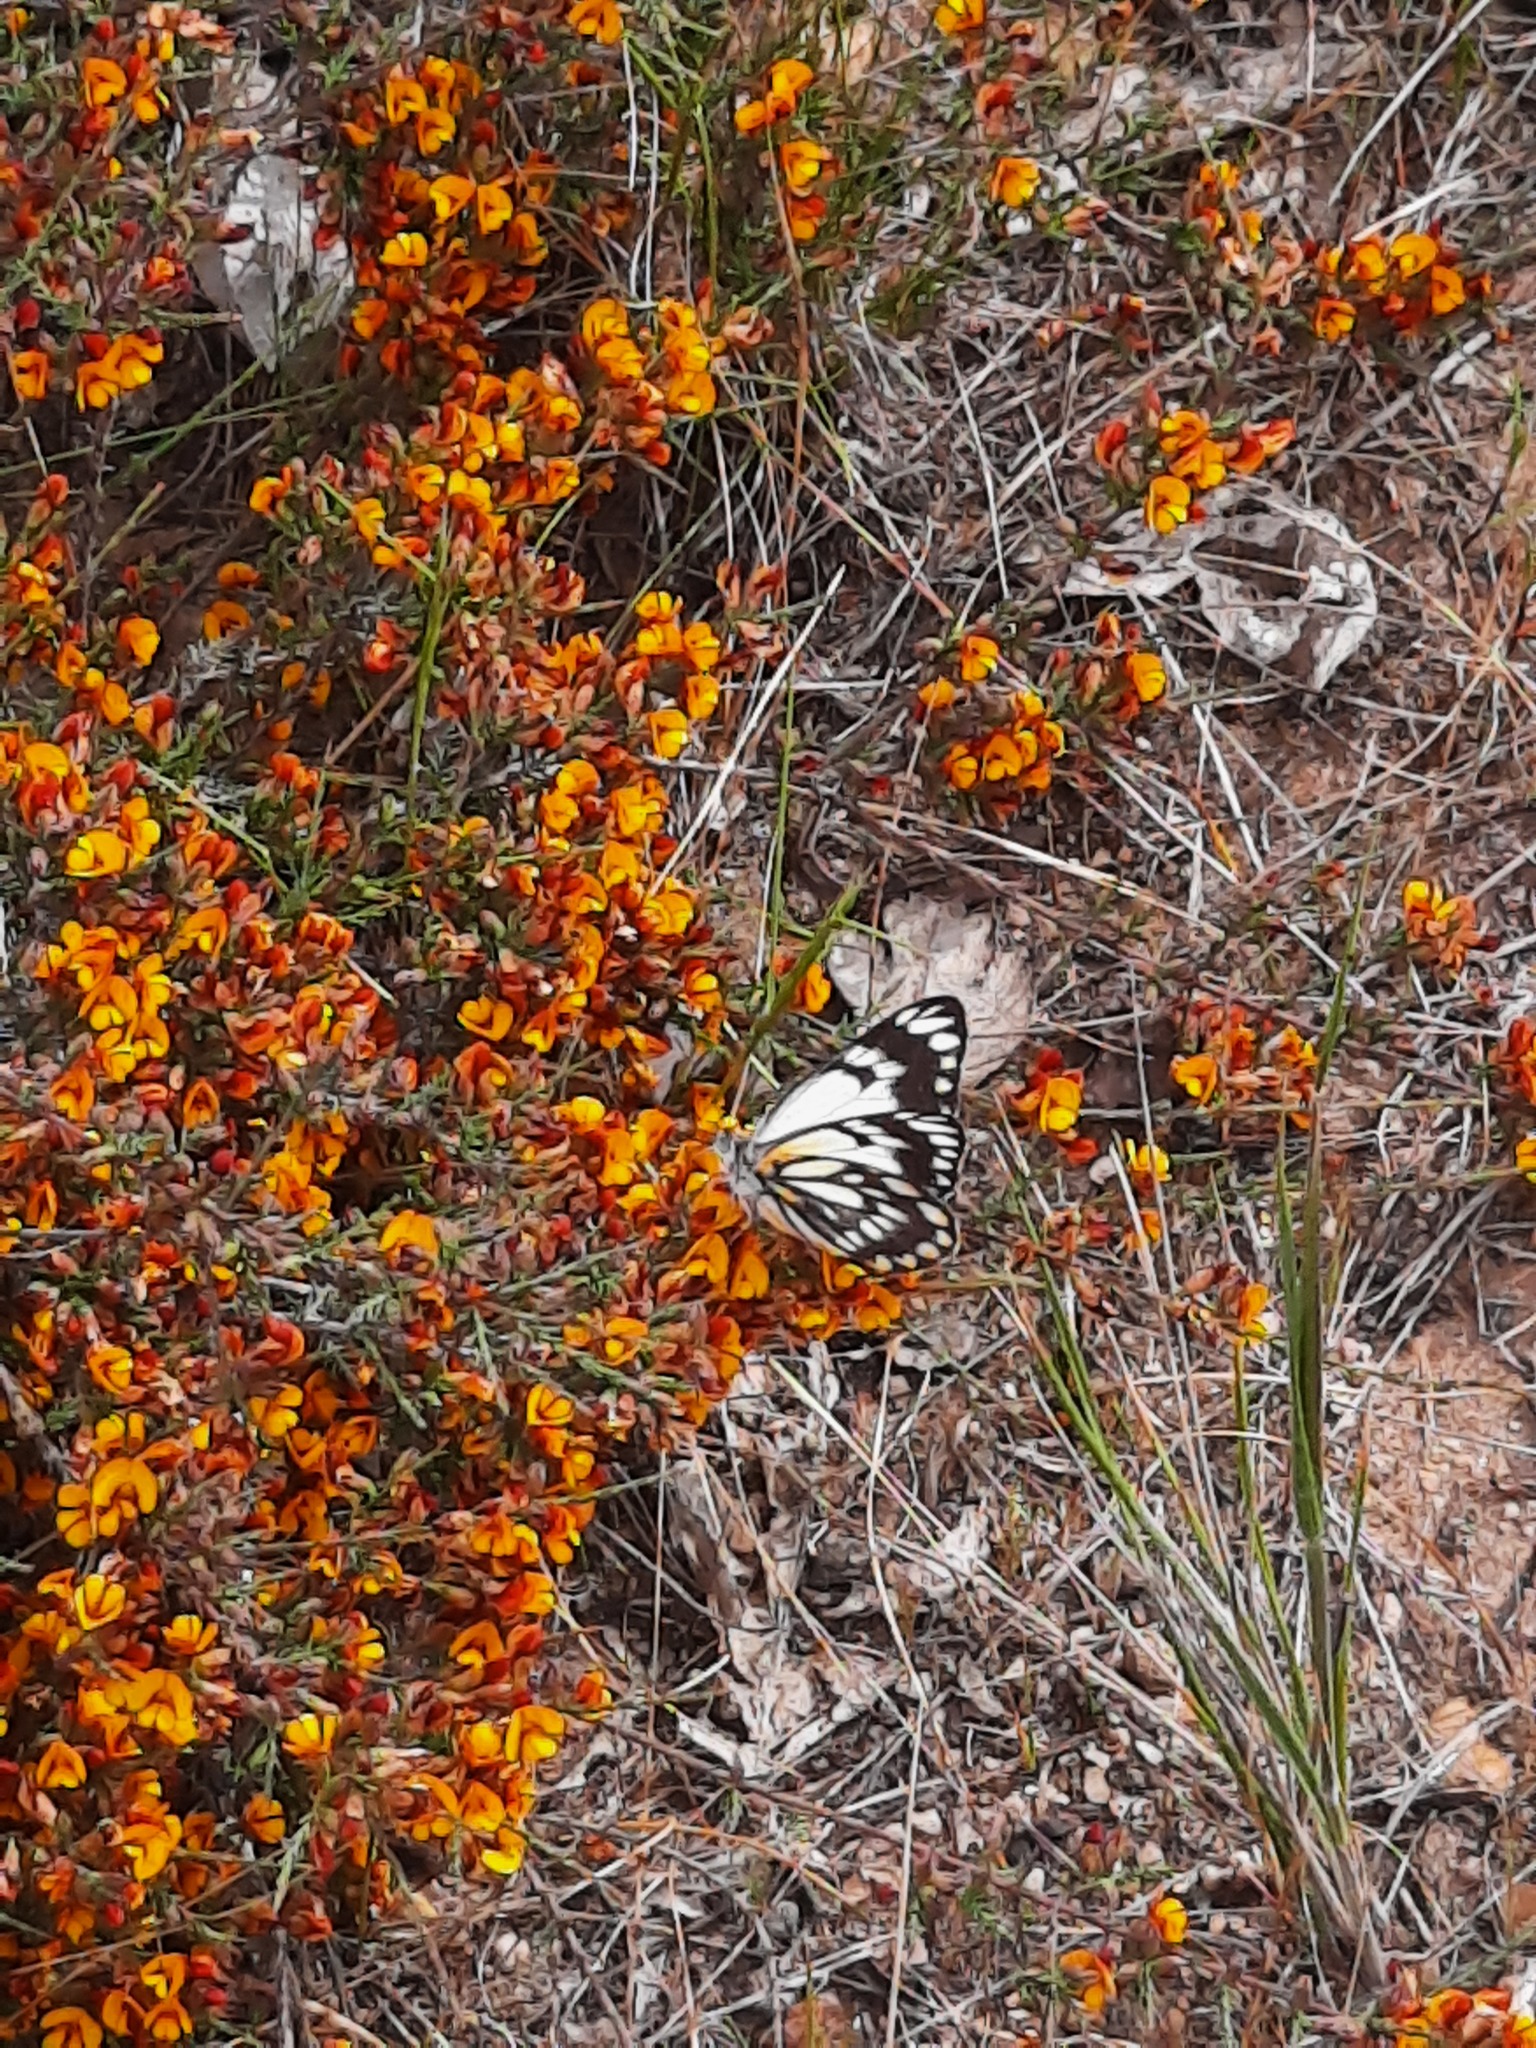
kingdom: Animalia
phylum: Arthropoda
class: Insecta
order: Lepidoptera
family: Pieridae
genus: Belenois
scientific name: Belenois java
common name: Caper white
